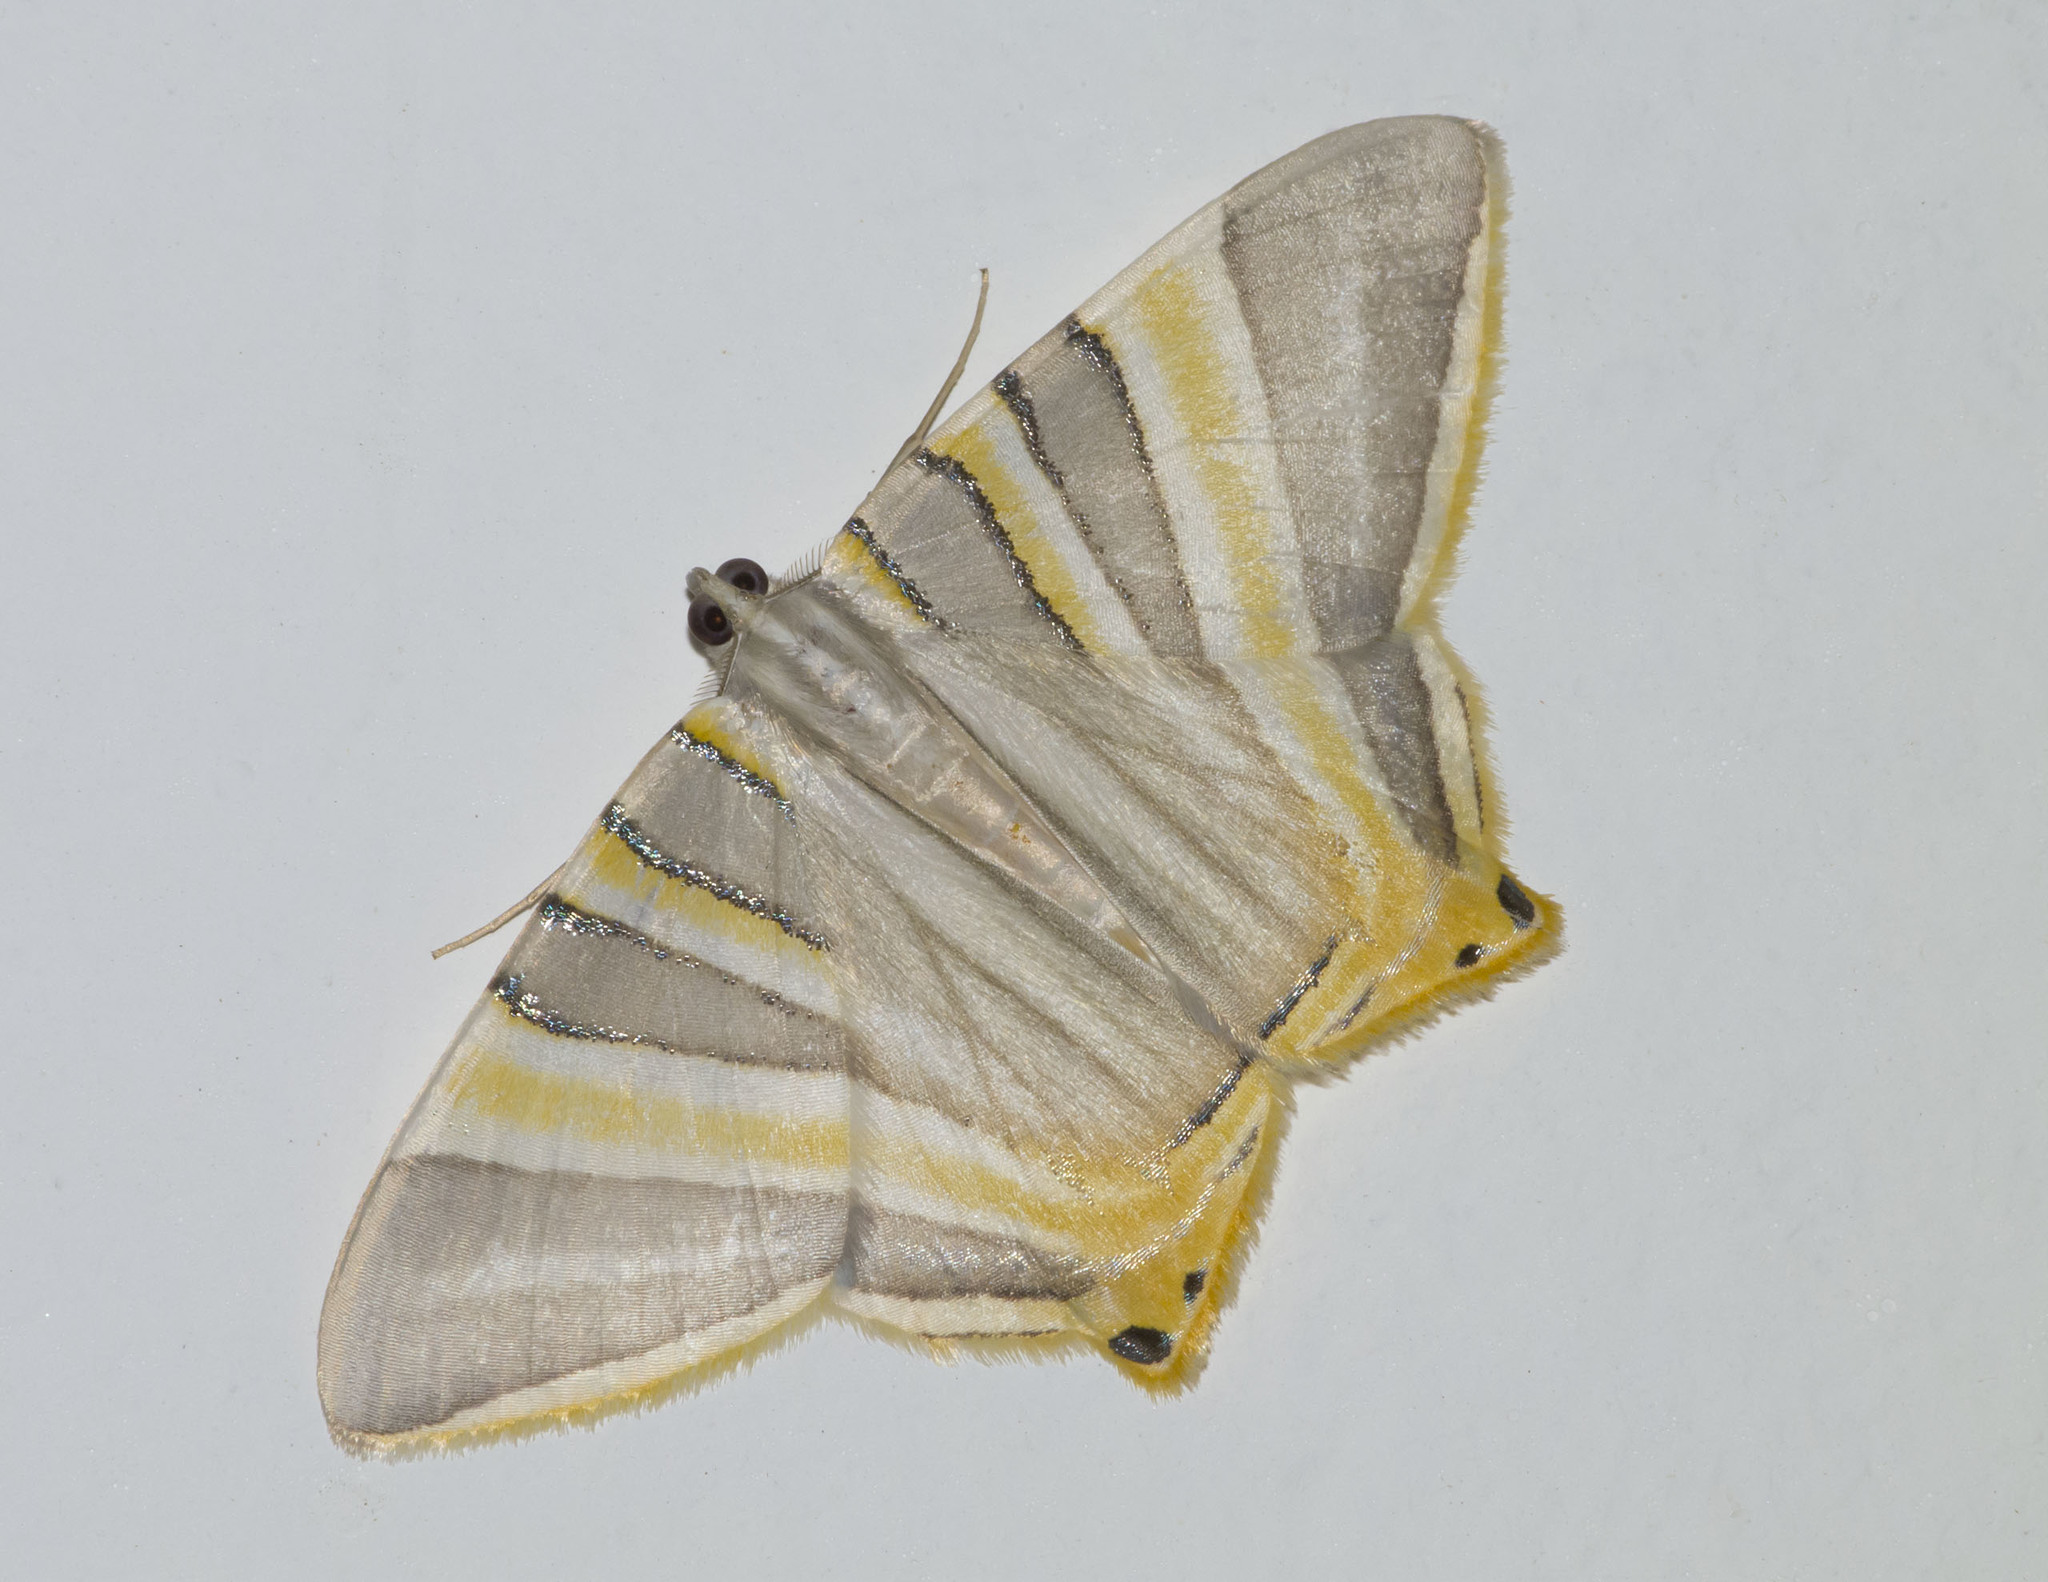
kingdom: Animalia
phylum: Arthropoda
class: Insecta
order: Lepidoptera
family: Geometridae
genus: Phrygionis
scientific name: Phrygionis platinata
